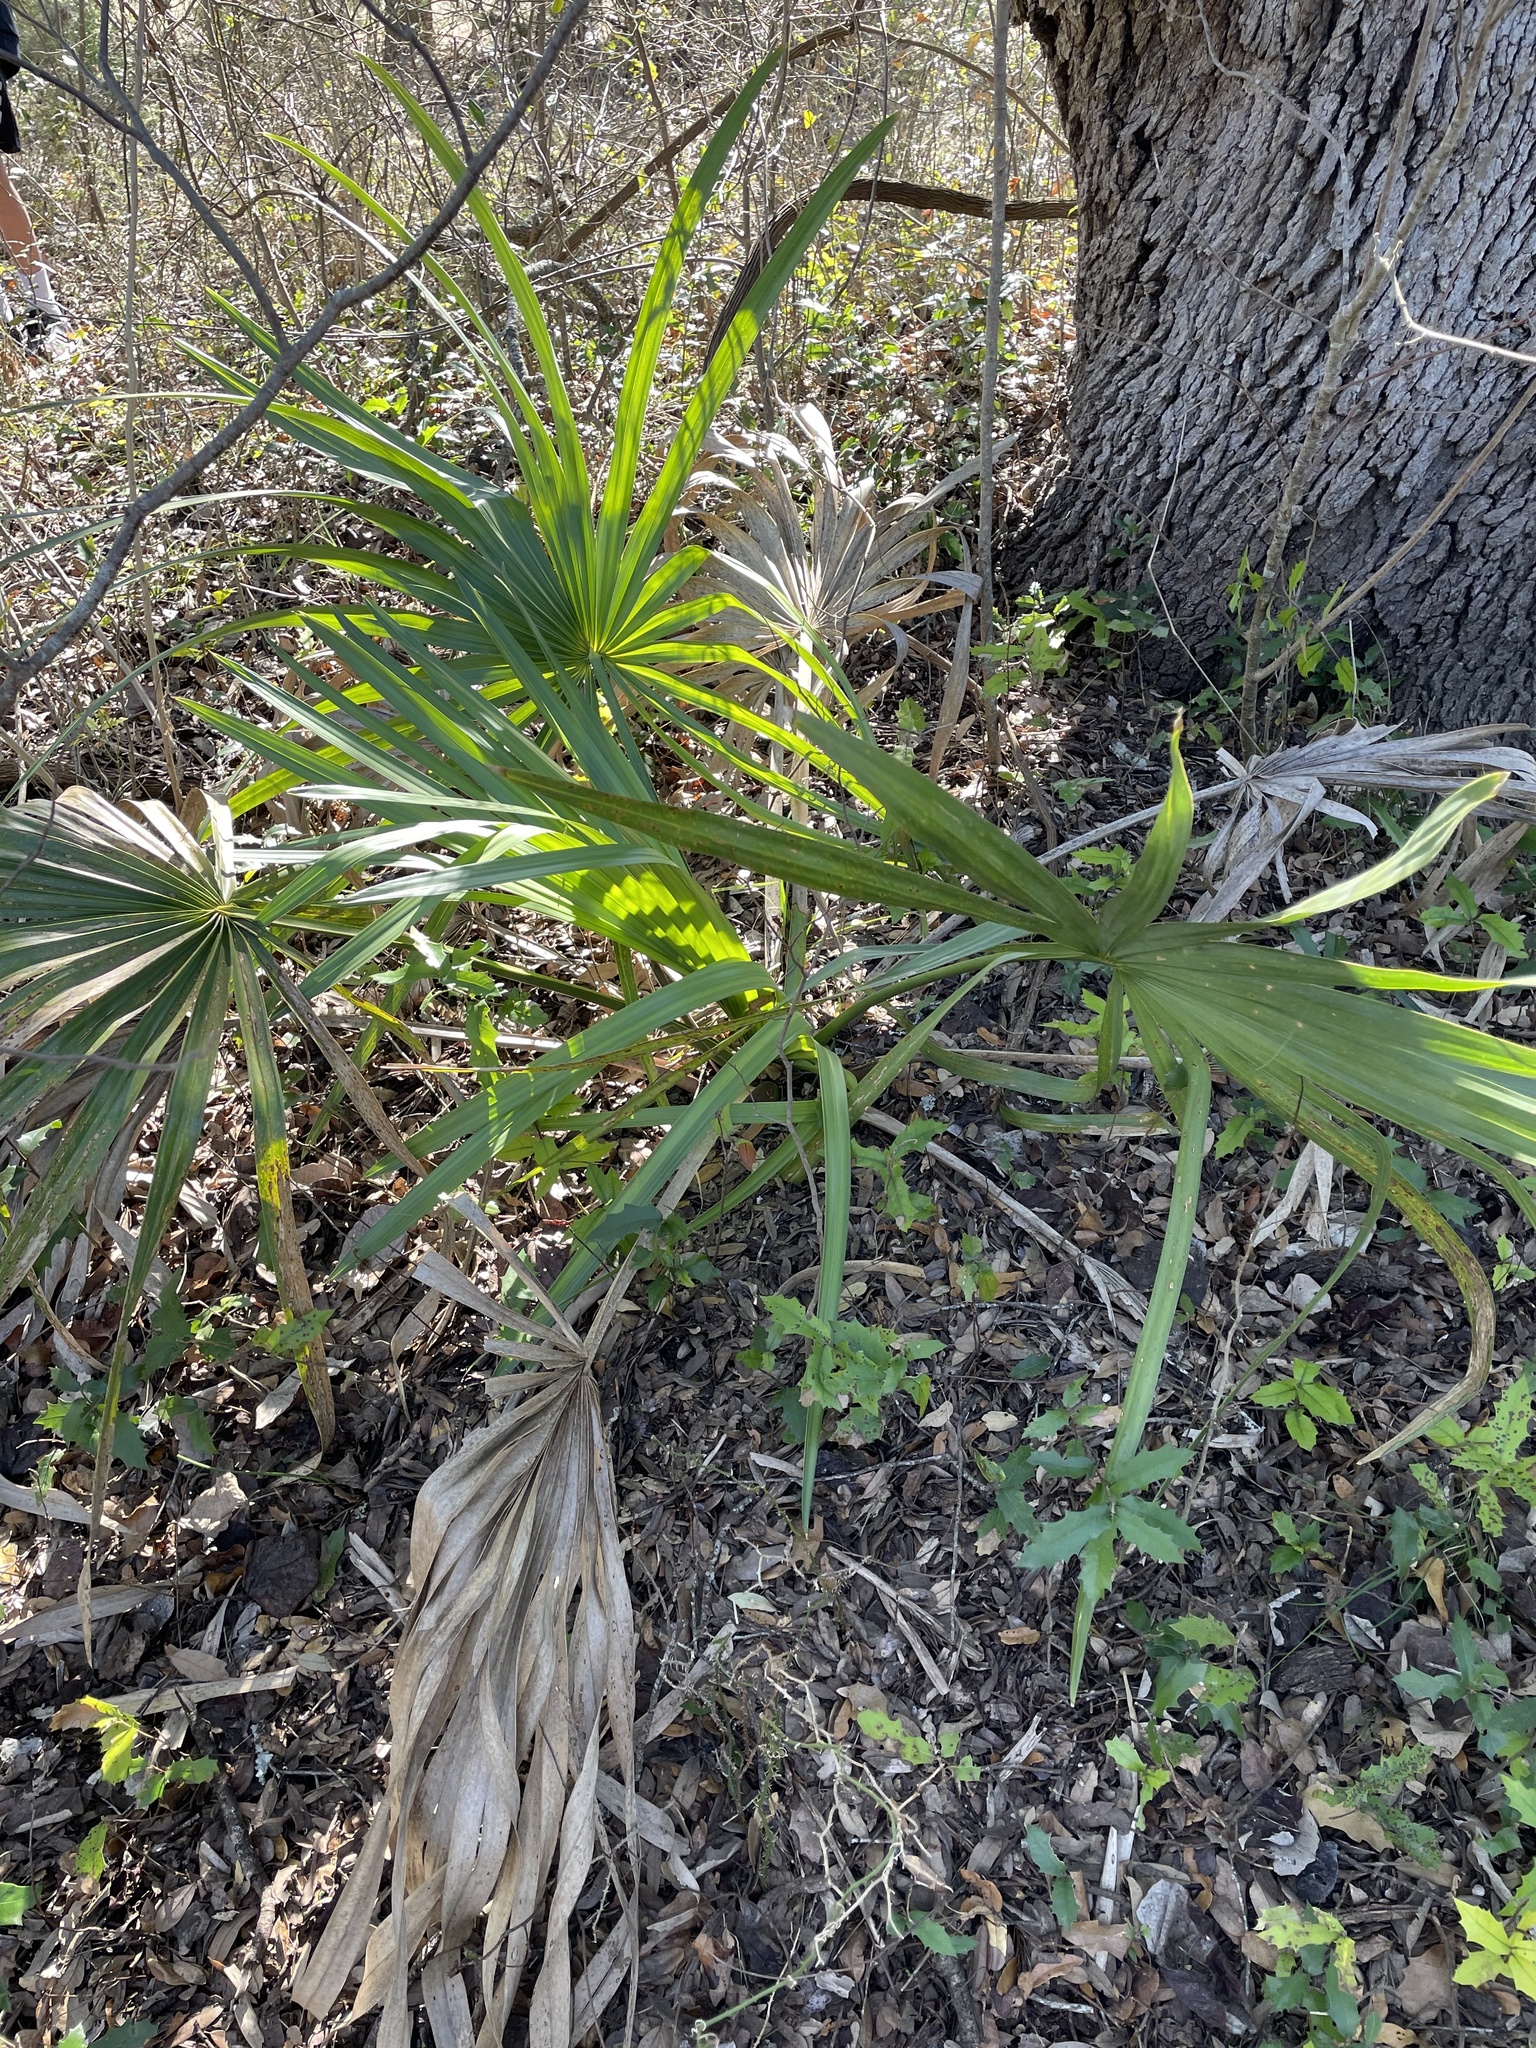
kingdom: Plantae
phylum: Tracheophyta
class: Liliopsida
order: Arecales
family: Arecaceae
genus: Sabal
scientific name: Sabal minor
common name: Dwarf palmetto
